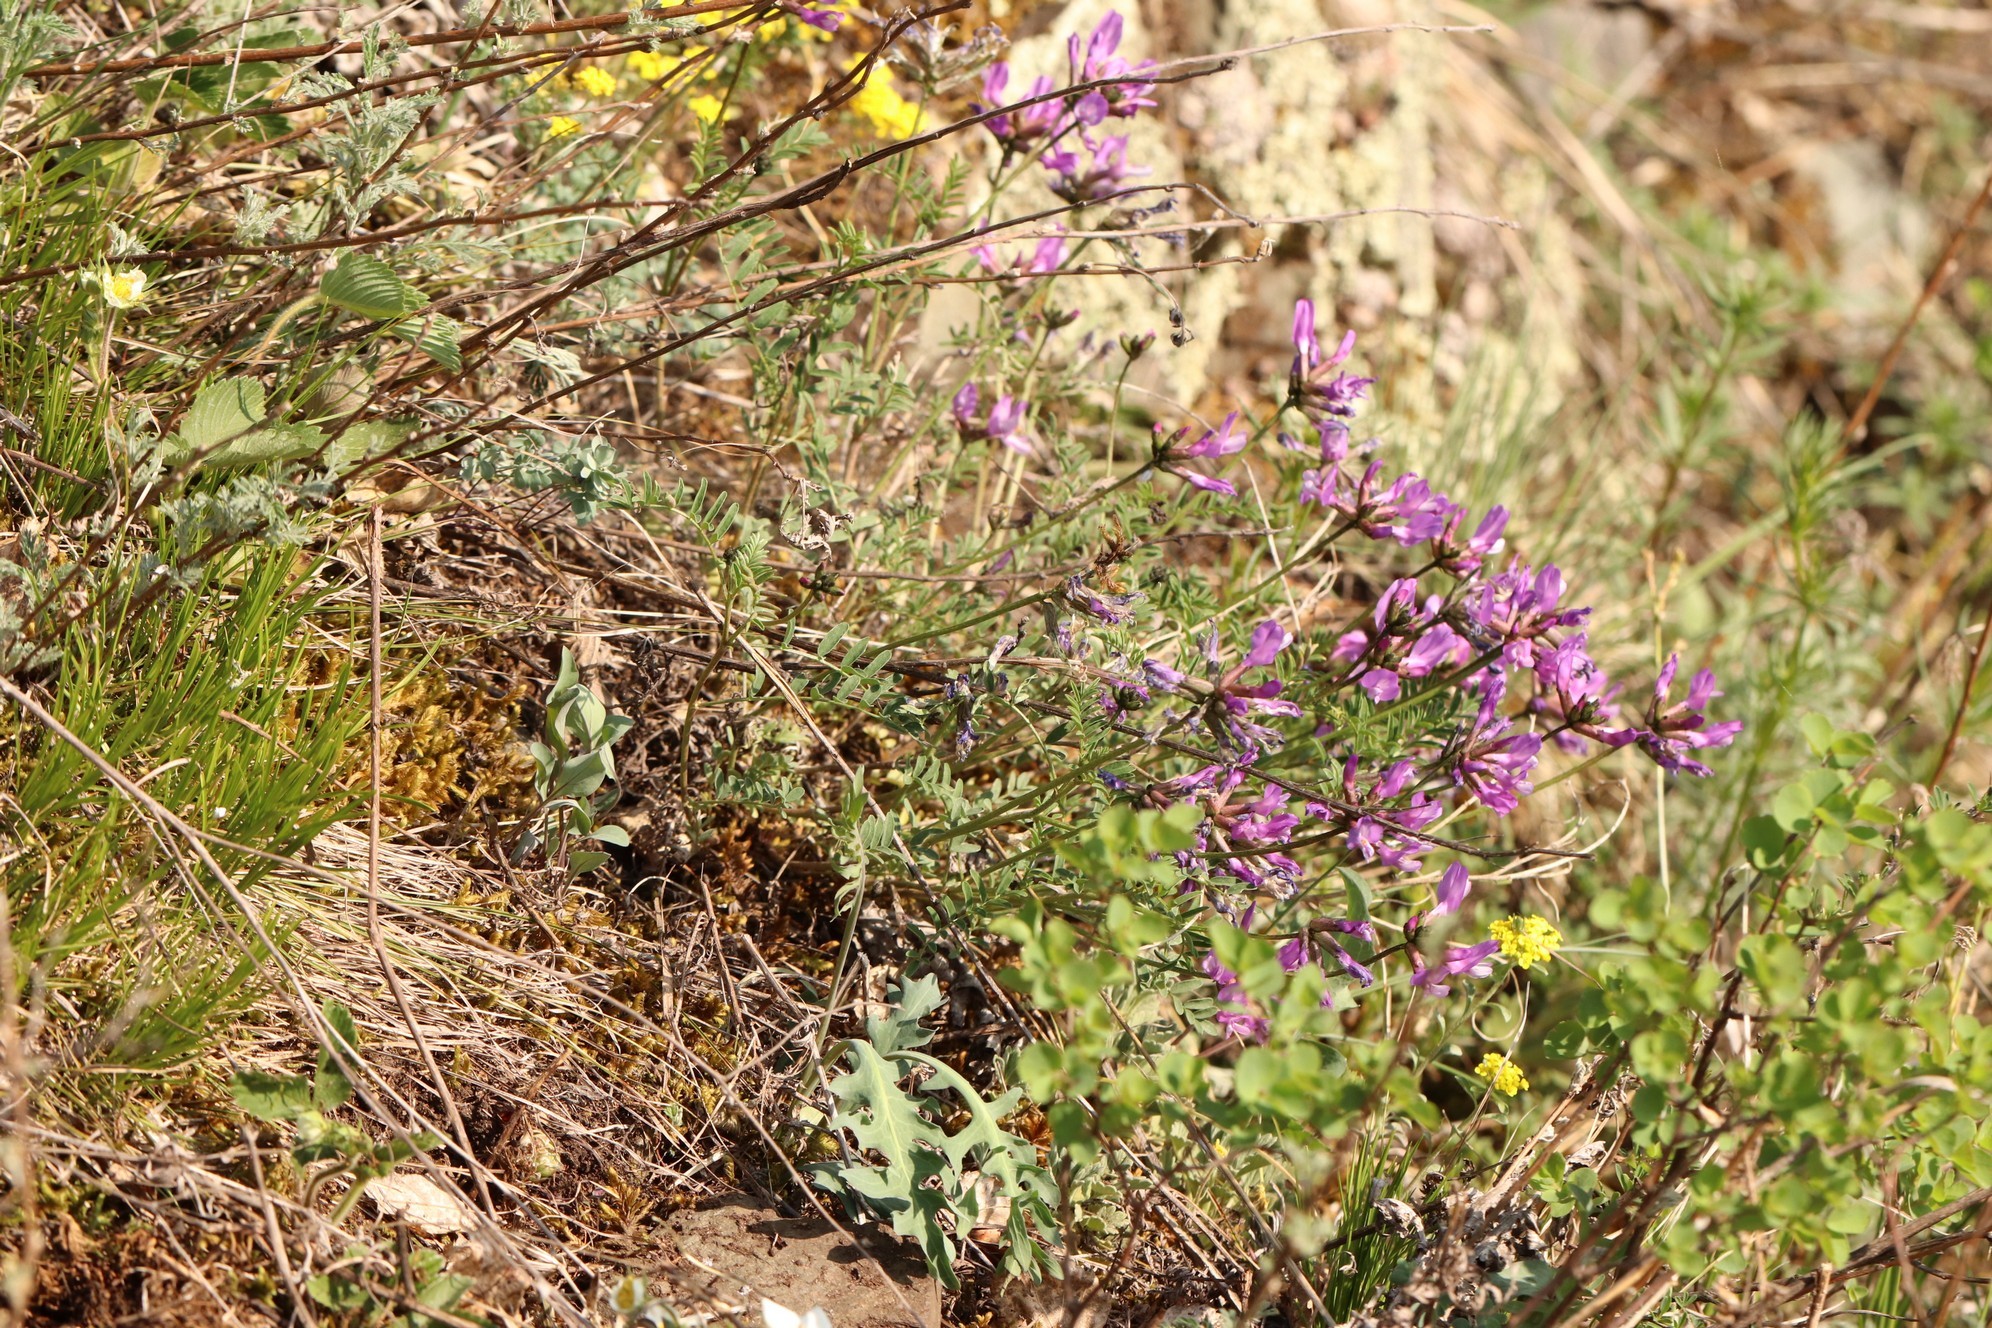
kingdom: Plantae
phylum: Tracheophyta
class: Magnoliopsida
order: Fabales
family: Fabaceae
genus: Astragalus
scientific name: Astragalus ceratoides
